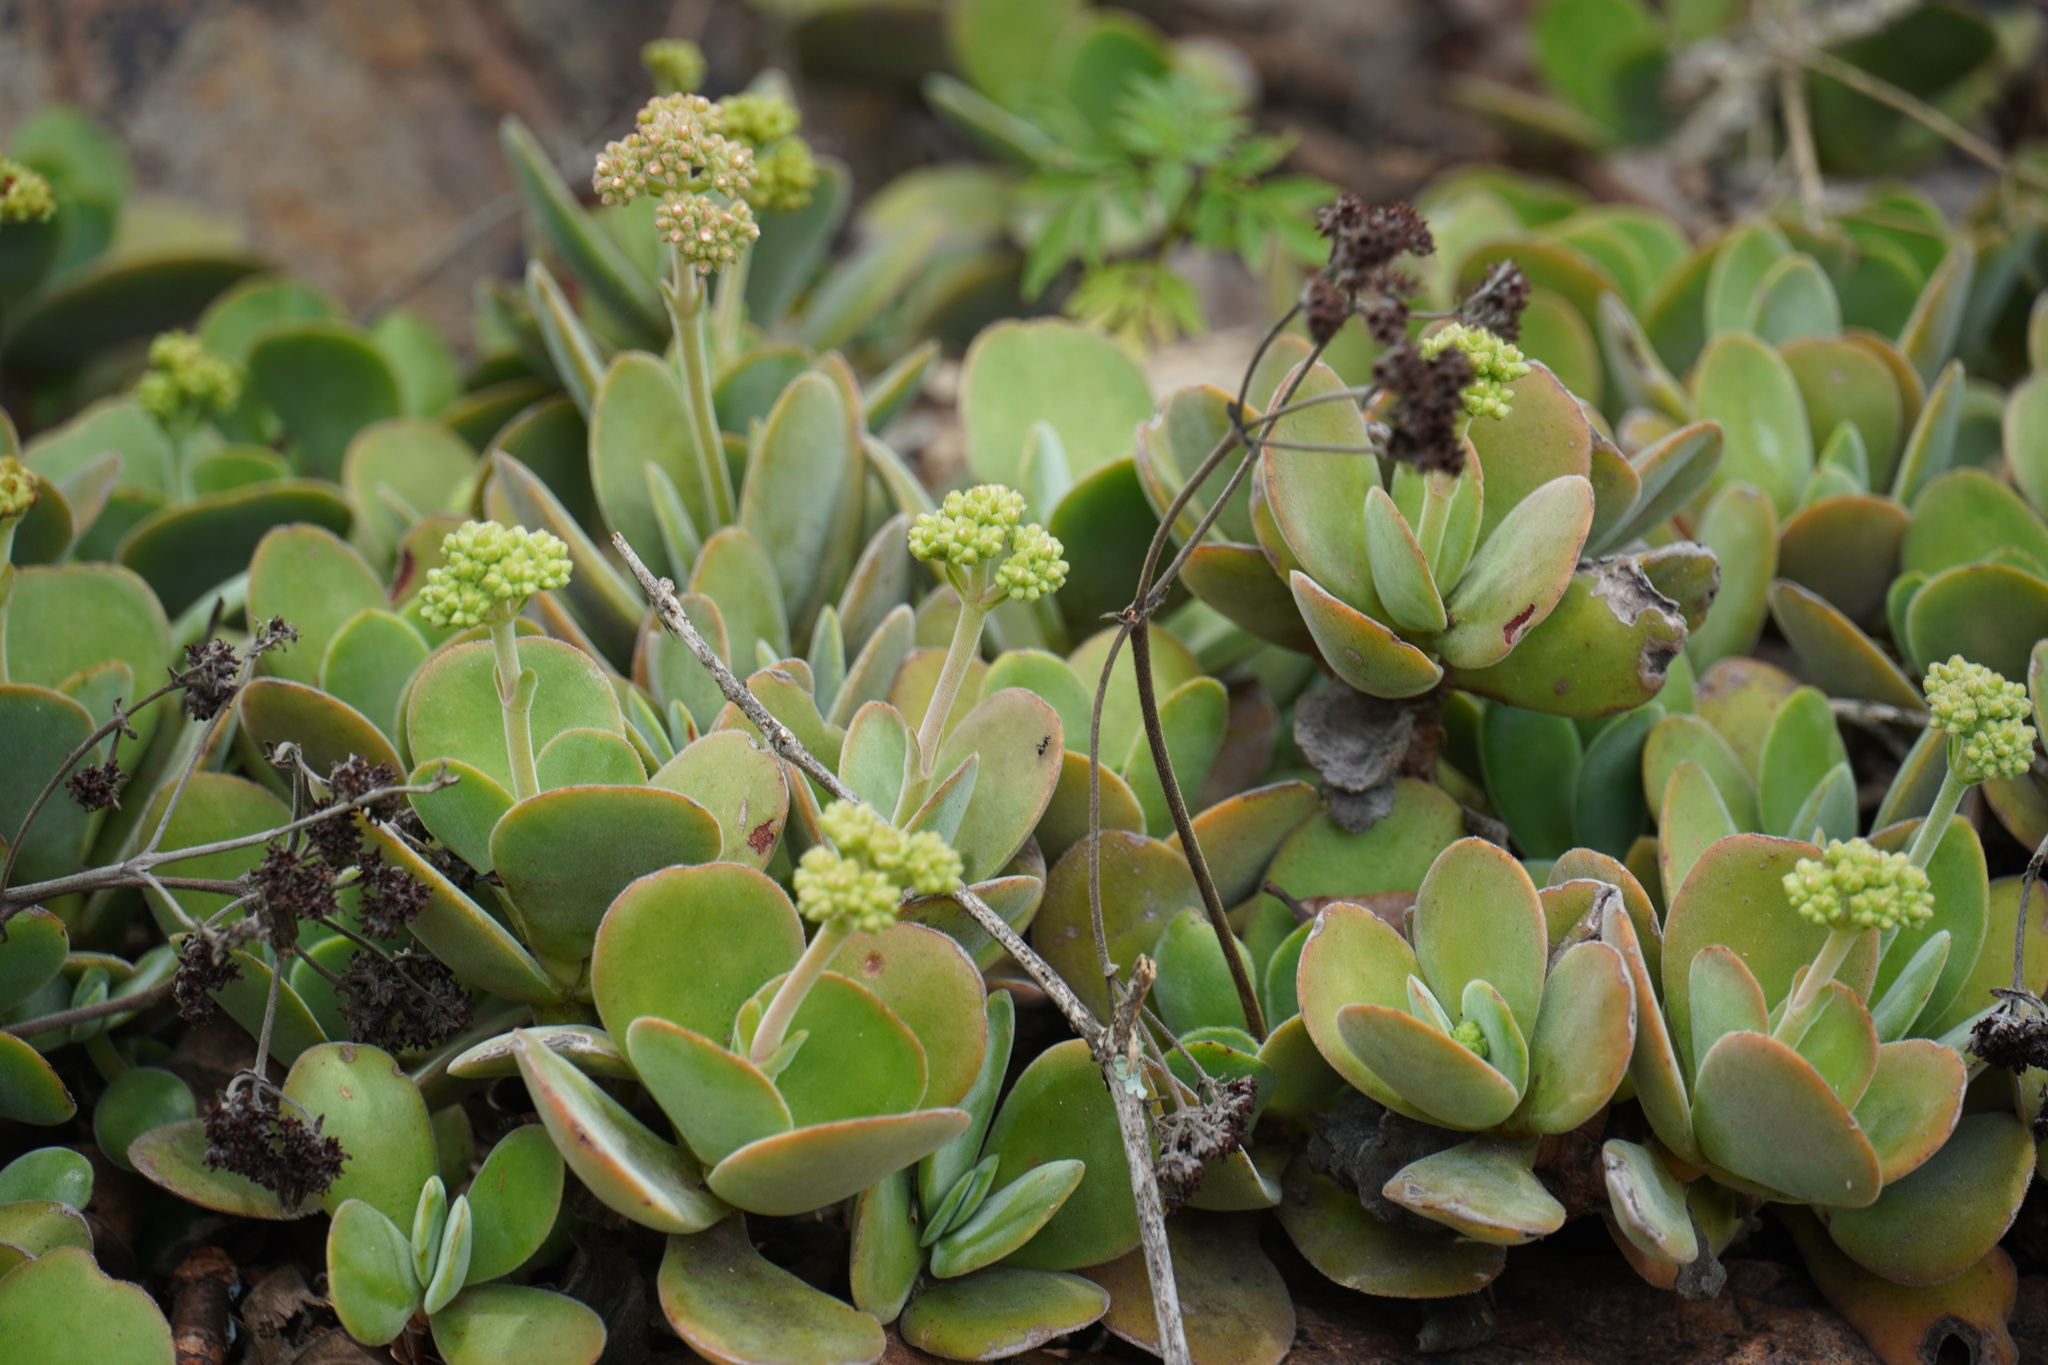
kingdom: Plantae
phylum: Tracheophyta
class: Magnoliopsida
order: Saxifragales
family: Crassulaceae
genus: Crassula
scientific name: Crassula globularioides
